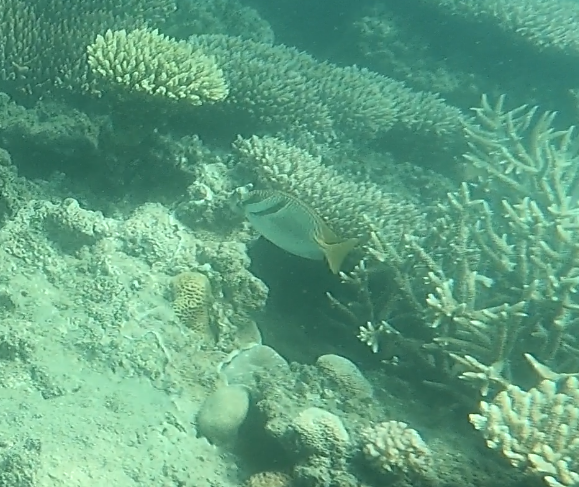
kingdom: Animalia
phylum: Chordata
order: Perciformes
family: Siganidae
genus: Siganus
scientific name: Siganus doliatus
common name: Barred spinefoot
